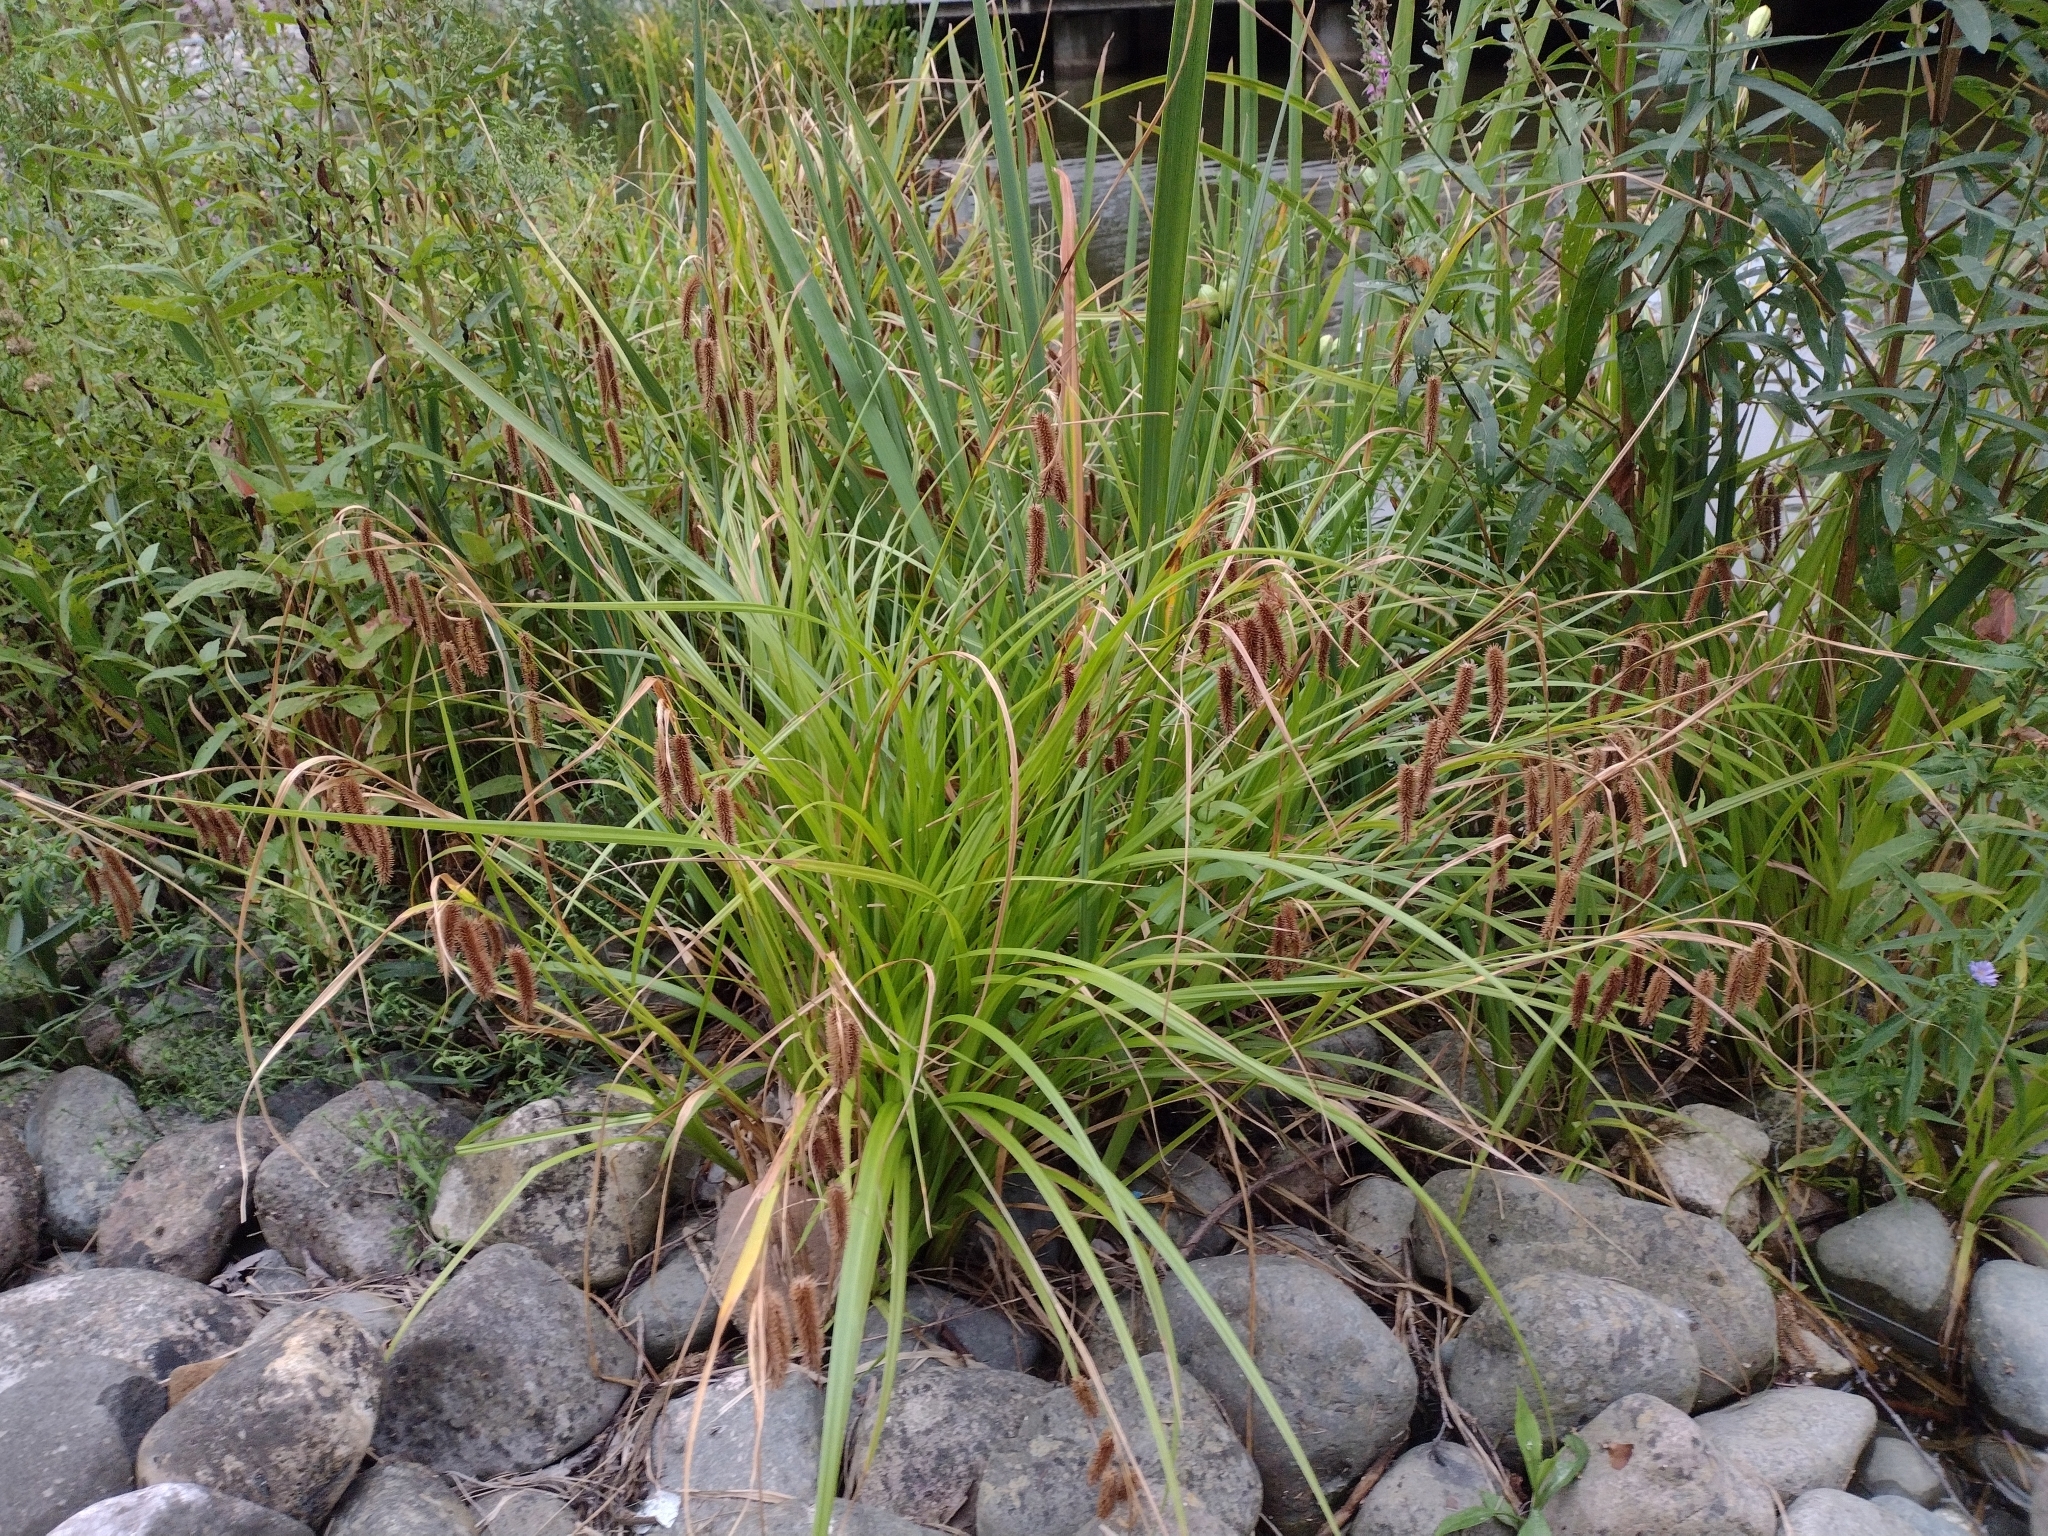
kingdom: Plantae
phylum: Tracheophyta
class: Liliopsida
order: Poales
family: Cyperaceae
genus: Carex
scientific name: Carex pseudocyperus
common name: Cyperus sedge
